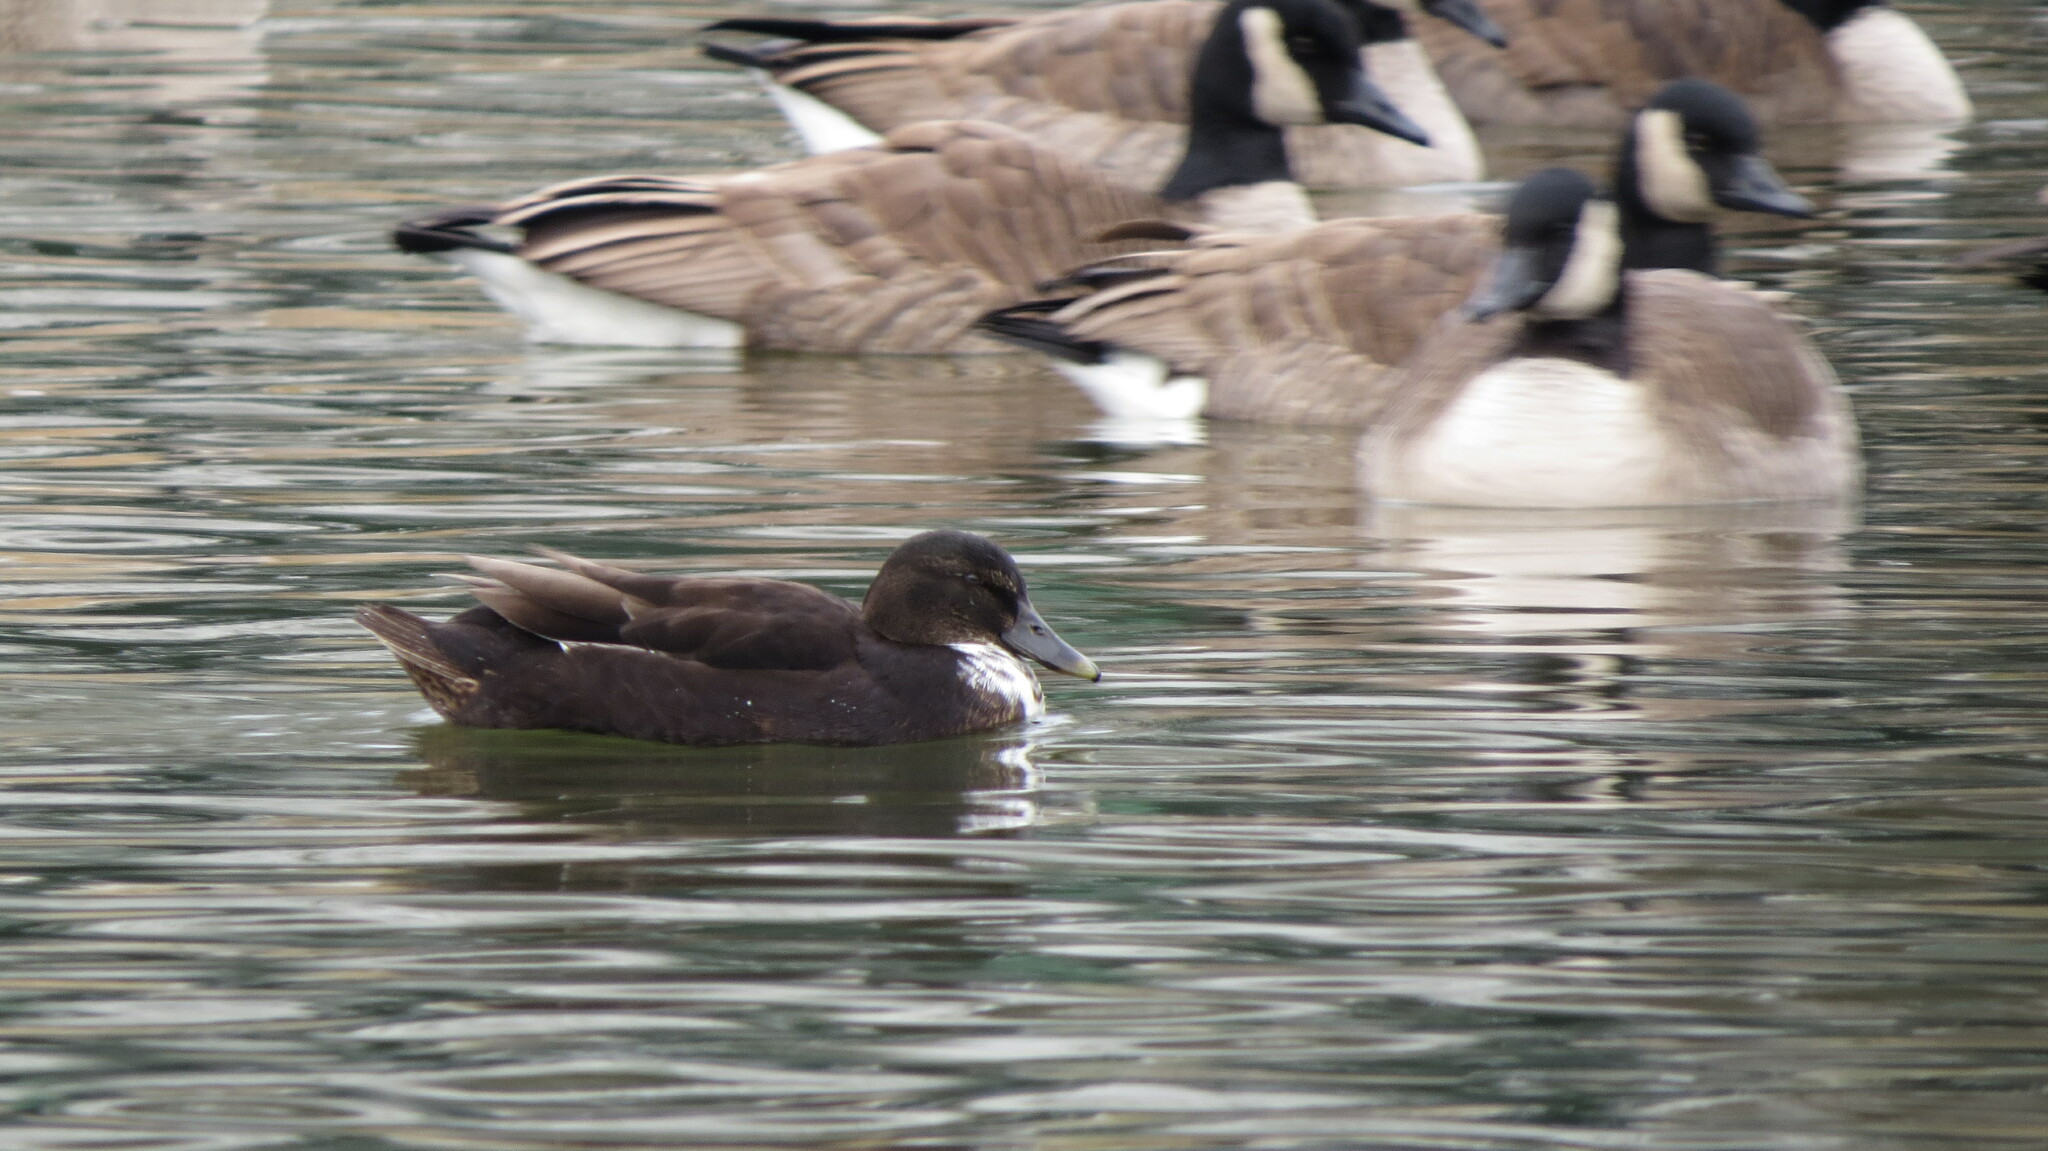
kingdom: Animalia
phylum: Chordata
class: Aves
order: Anseriformes
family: Anatidae
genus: Anas
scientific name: Anas platyrhynchos
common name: Mallard
